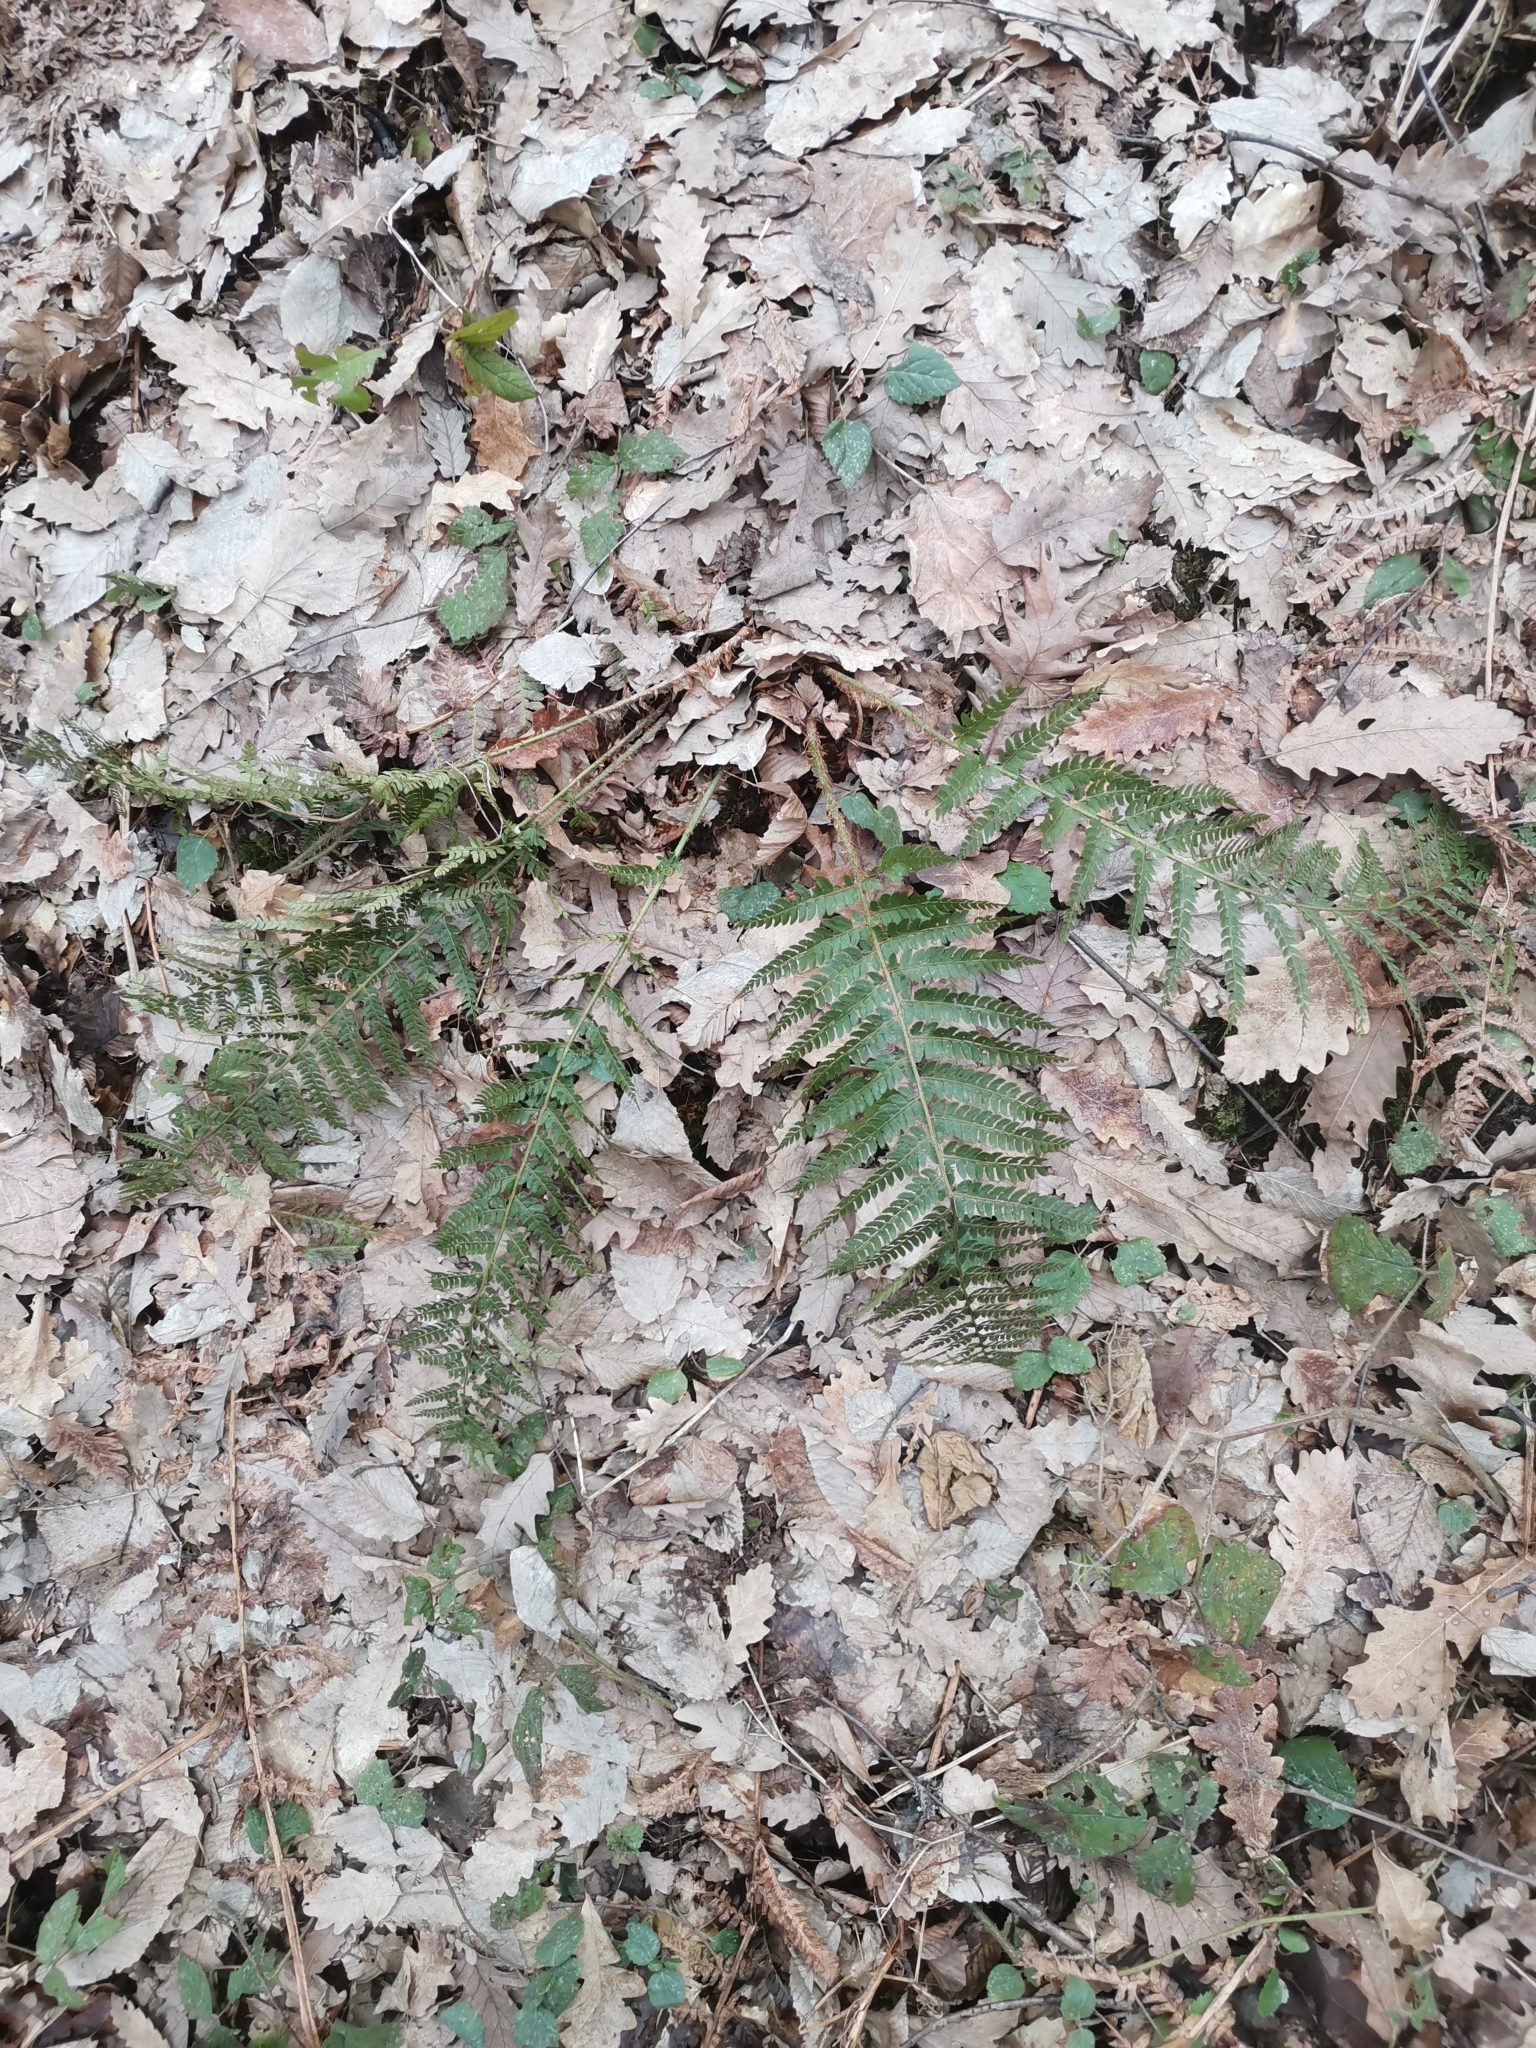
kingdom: Plantae
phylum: Tracheophyta
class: Polypodiopsida
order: Polypodiales
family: Dryopteridaceae
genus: Polystichum
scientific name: Polystichum setiferum
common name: Soft shield-fern
